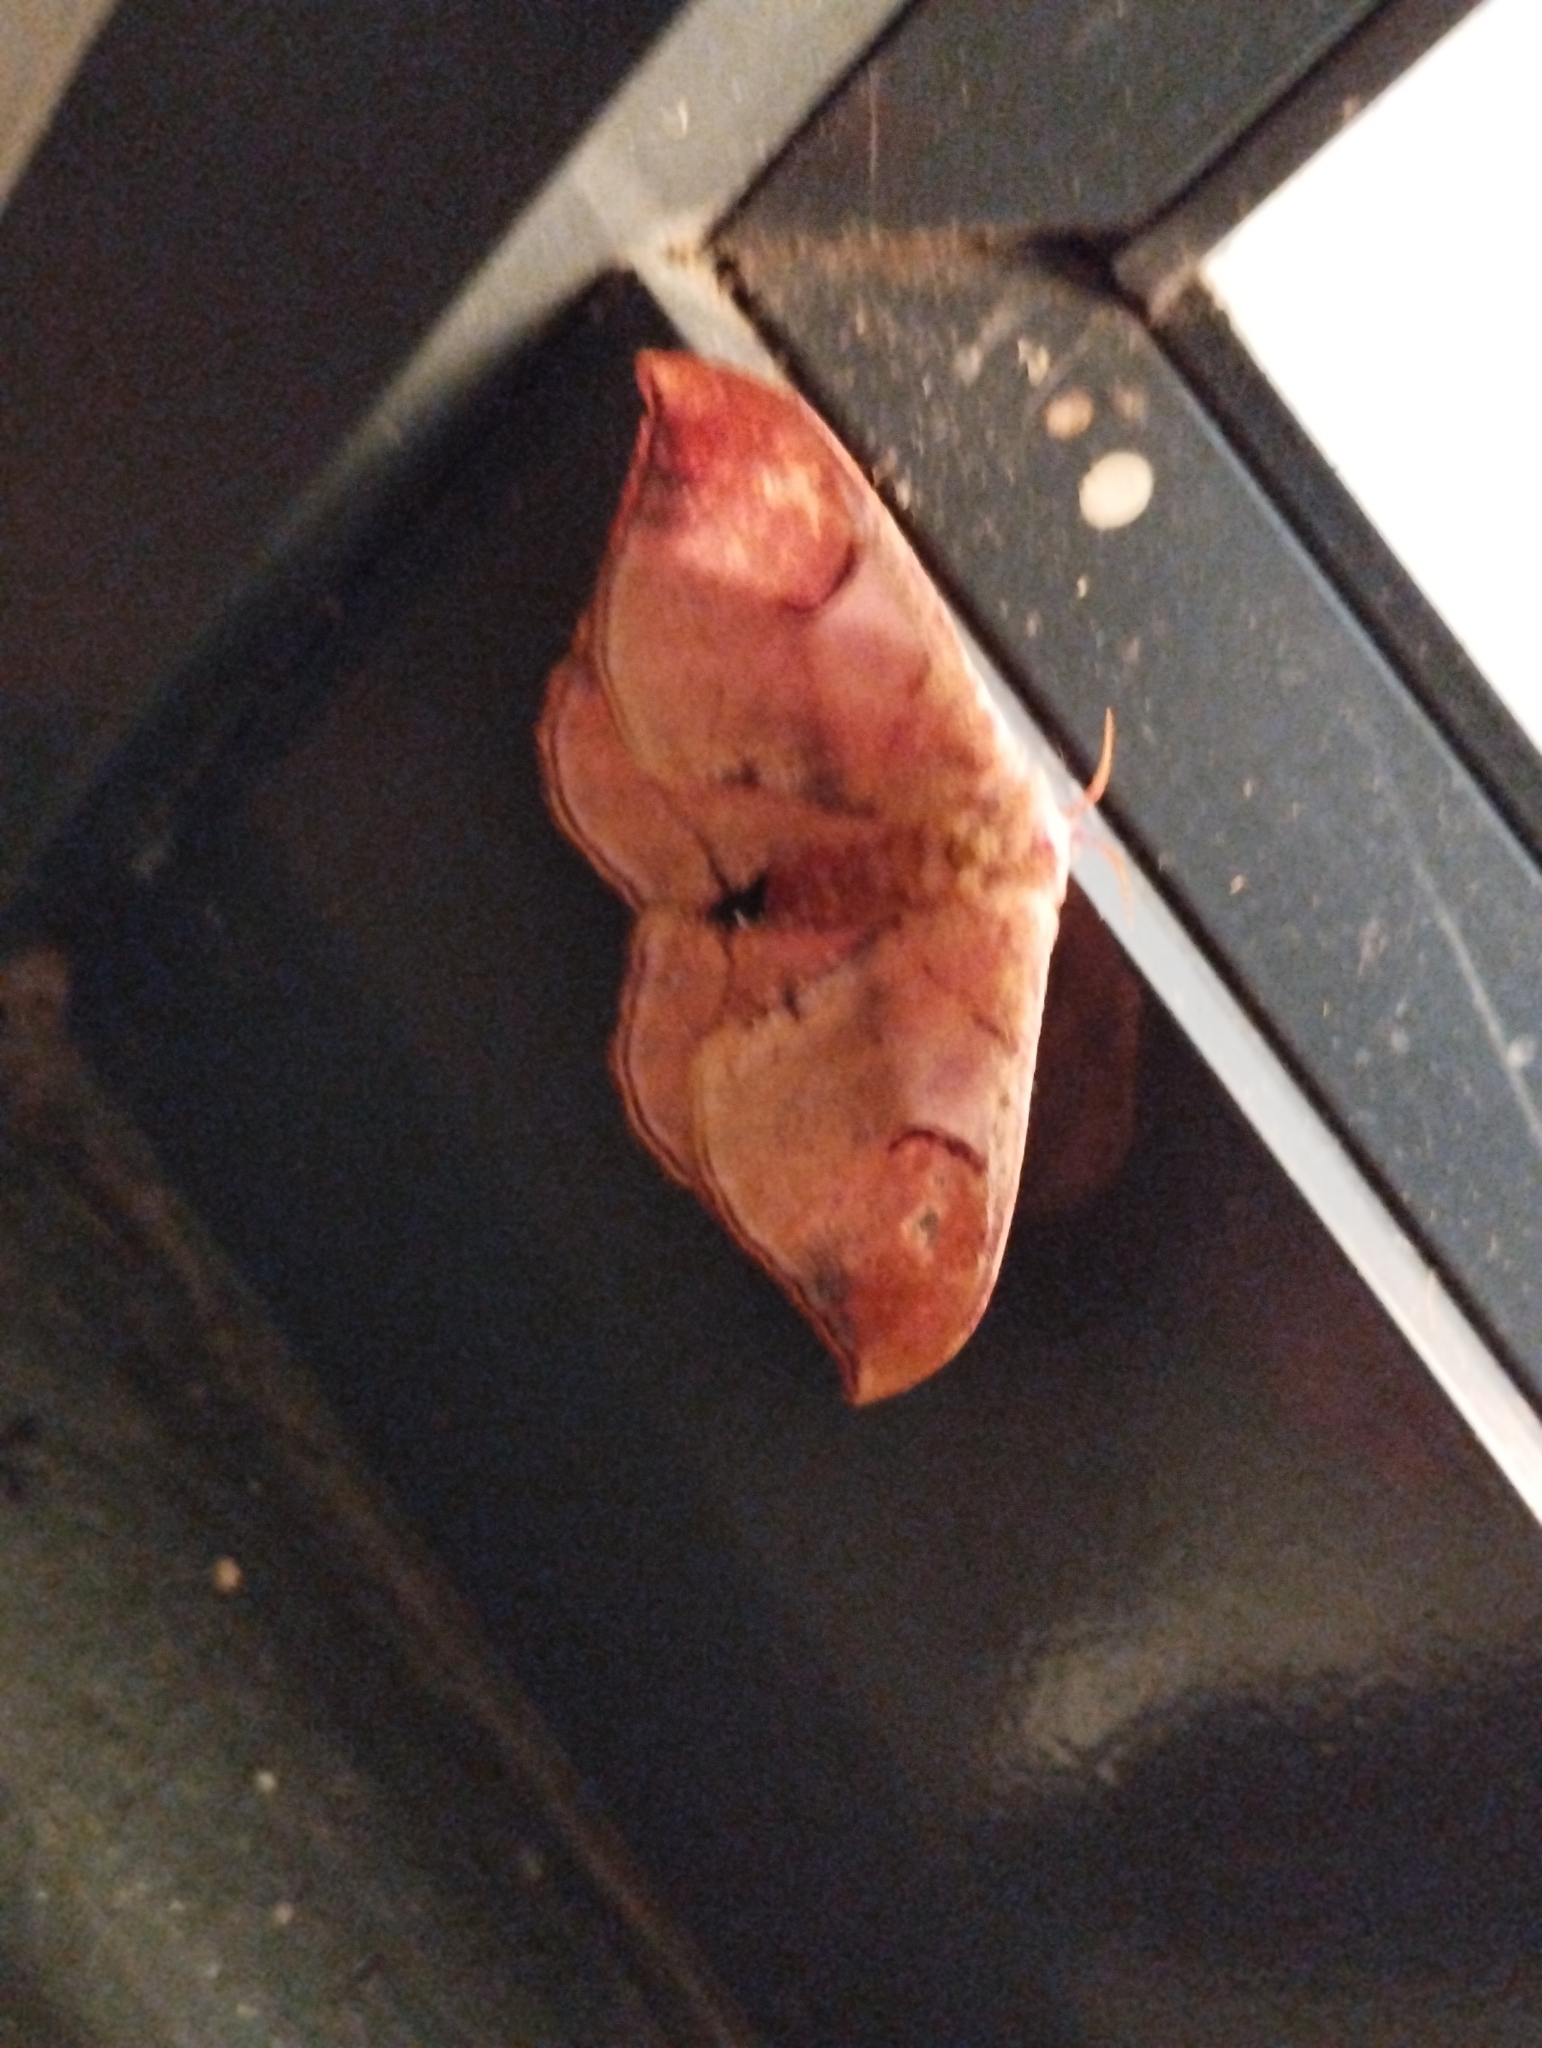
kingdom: Animalia
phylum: Arthropoda
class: Insecta
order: Lepidoptera
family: Saturniidae
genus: Goodia
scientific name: Goodia
